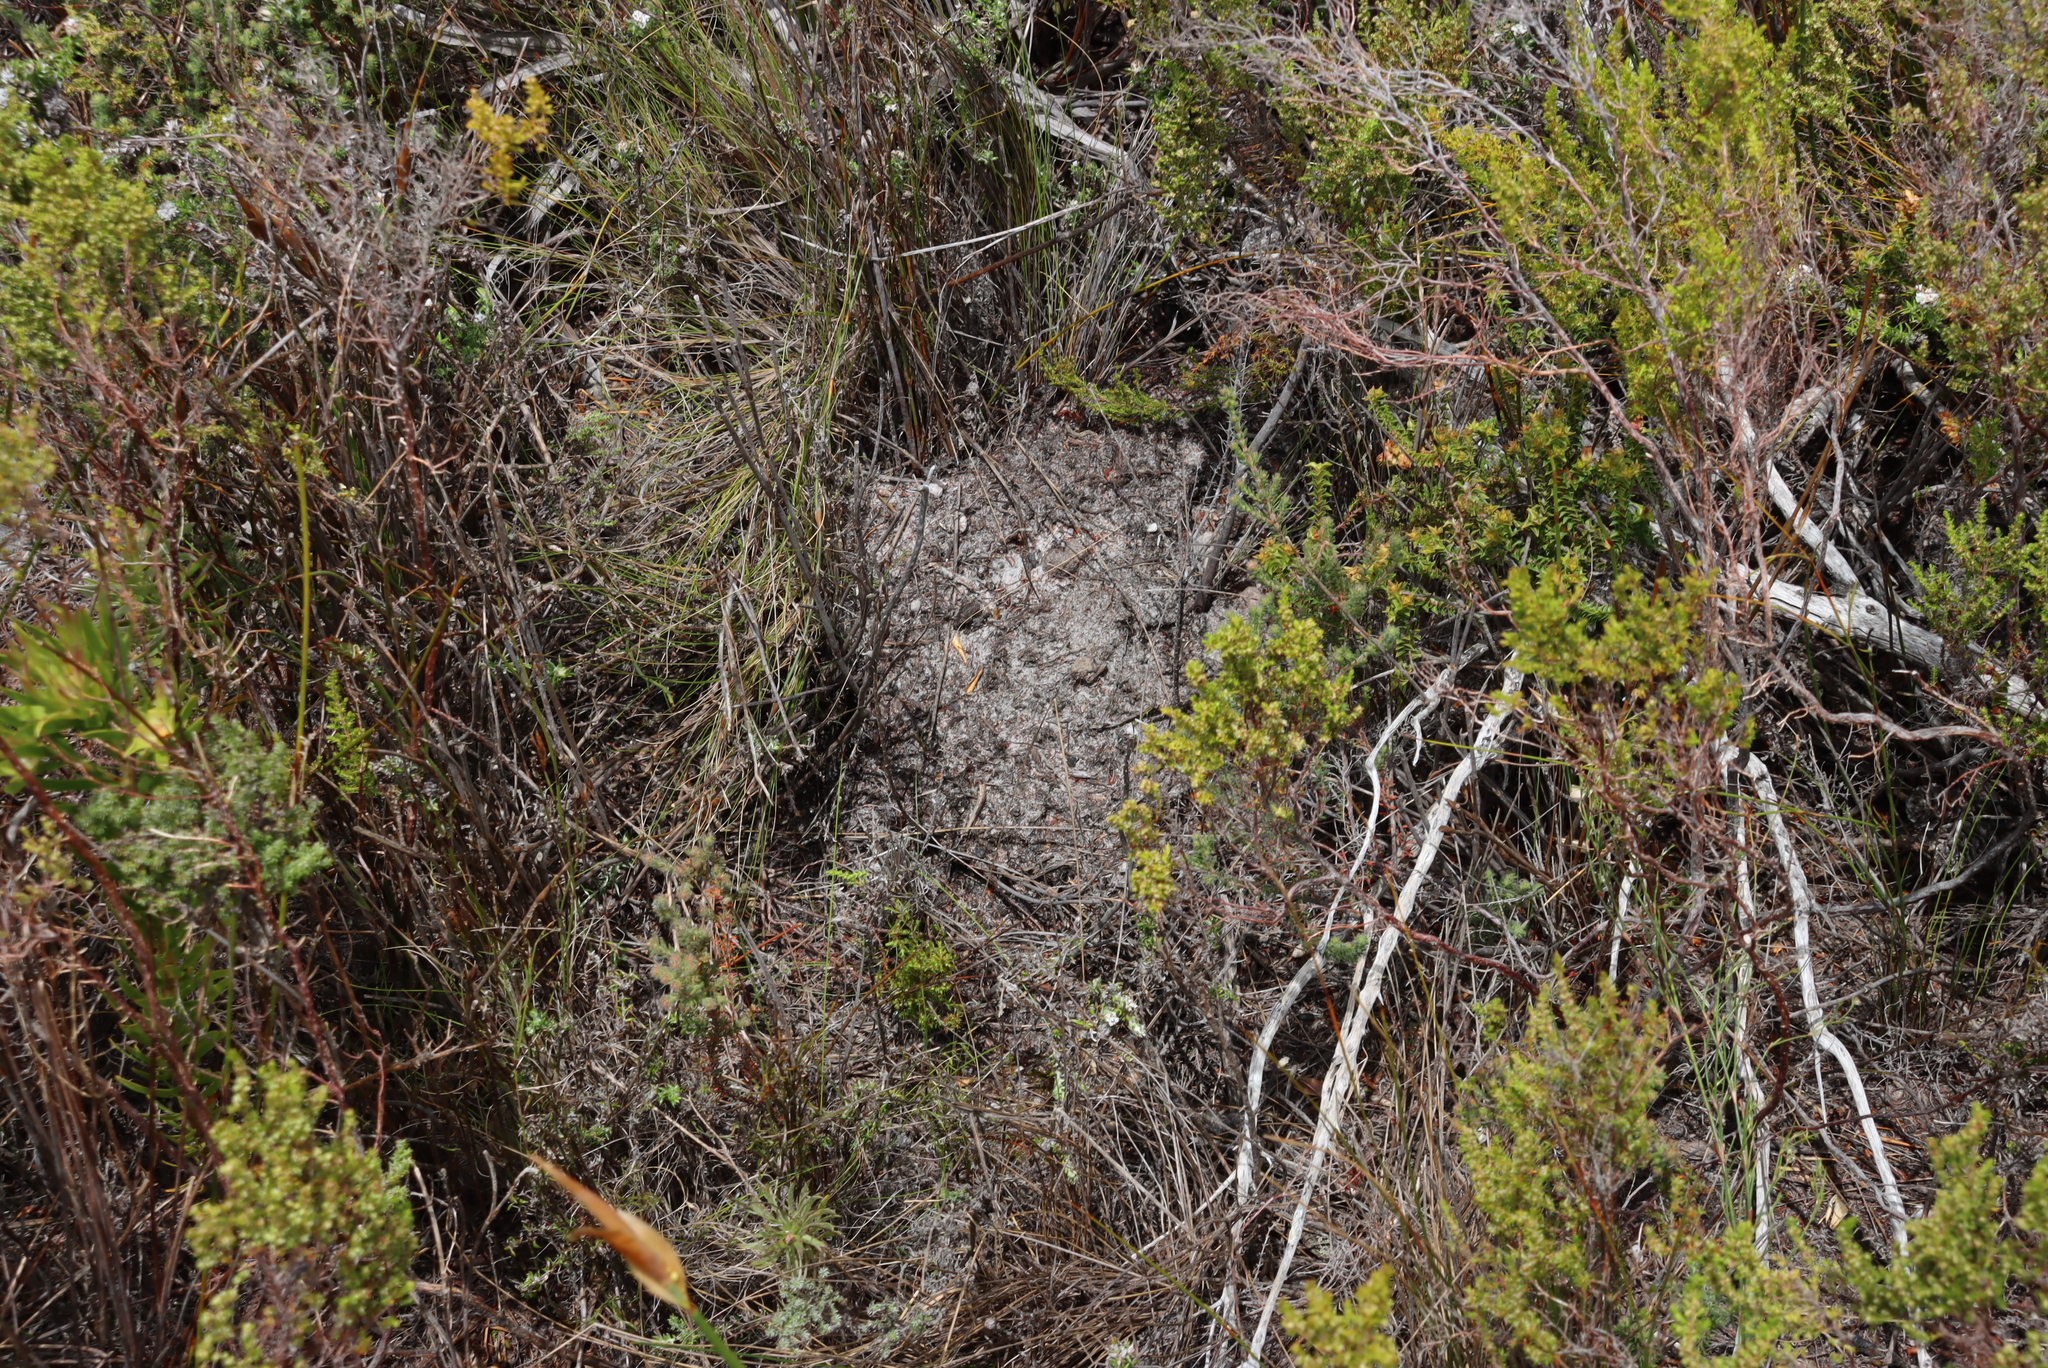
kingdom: Animalia
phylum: Chordata
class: Mammalia
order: Rodentia
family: Bathyergidae
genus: Georychus
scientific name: Georychus capensis
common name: Cape mole-rat
